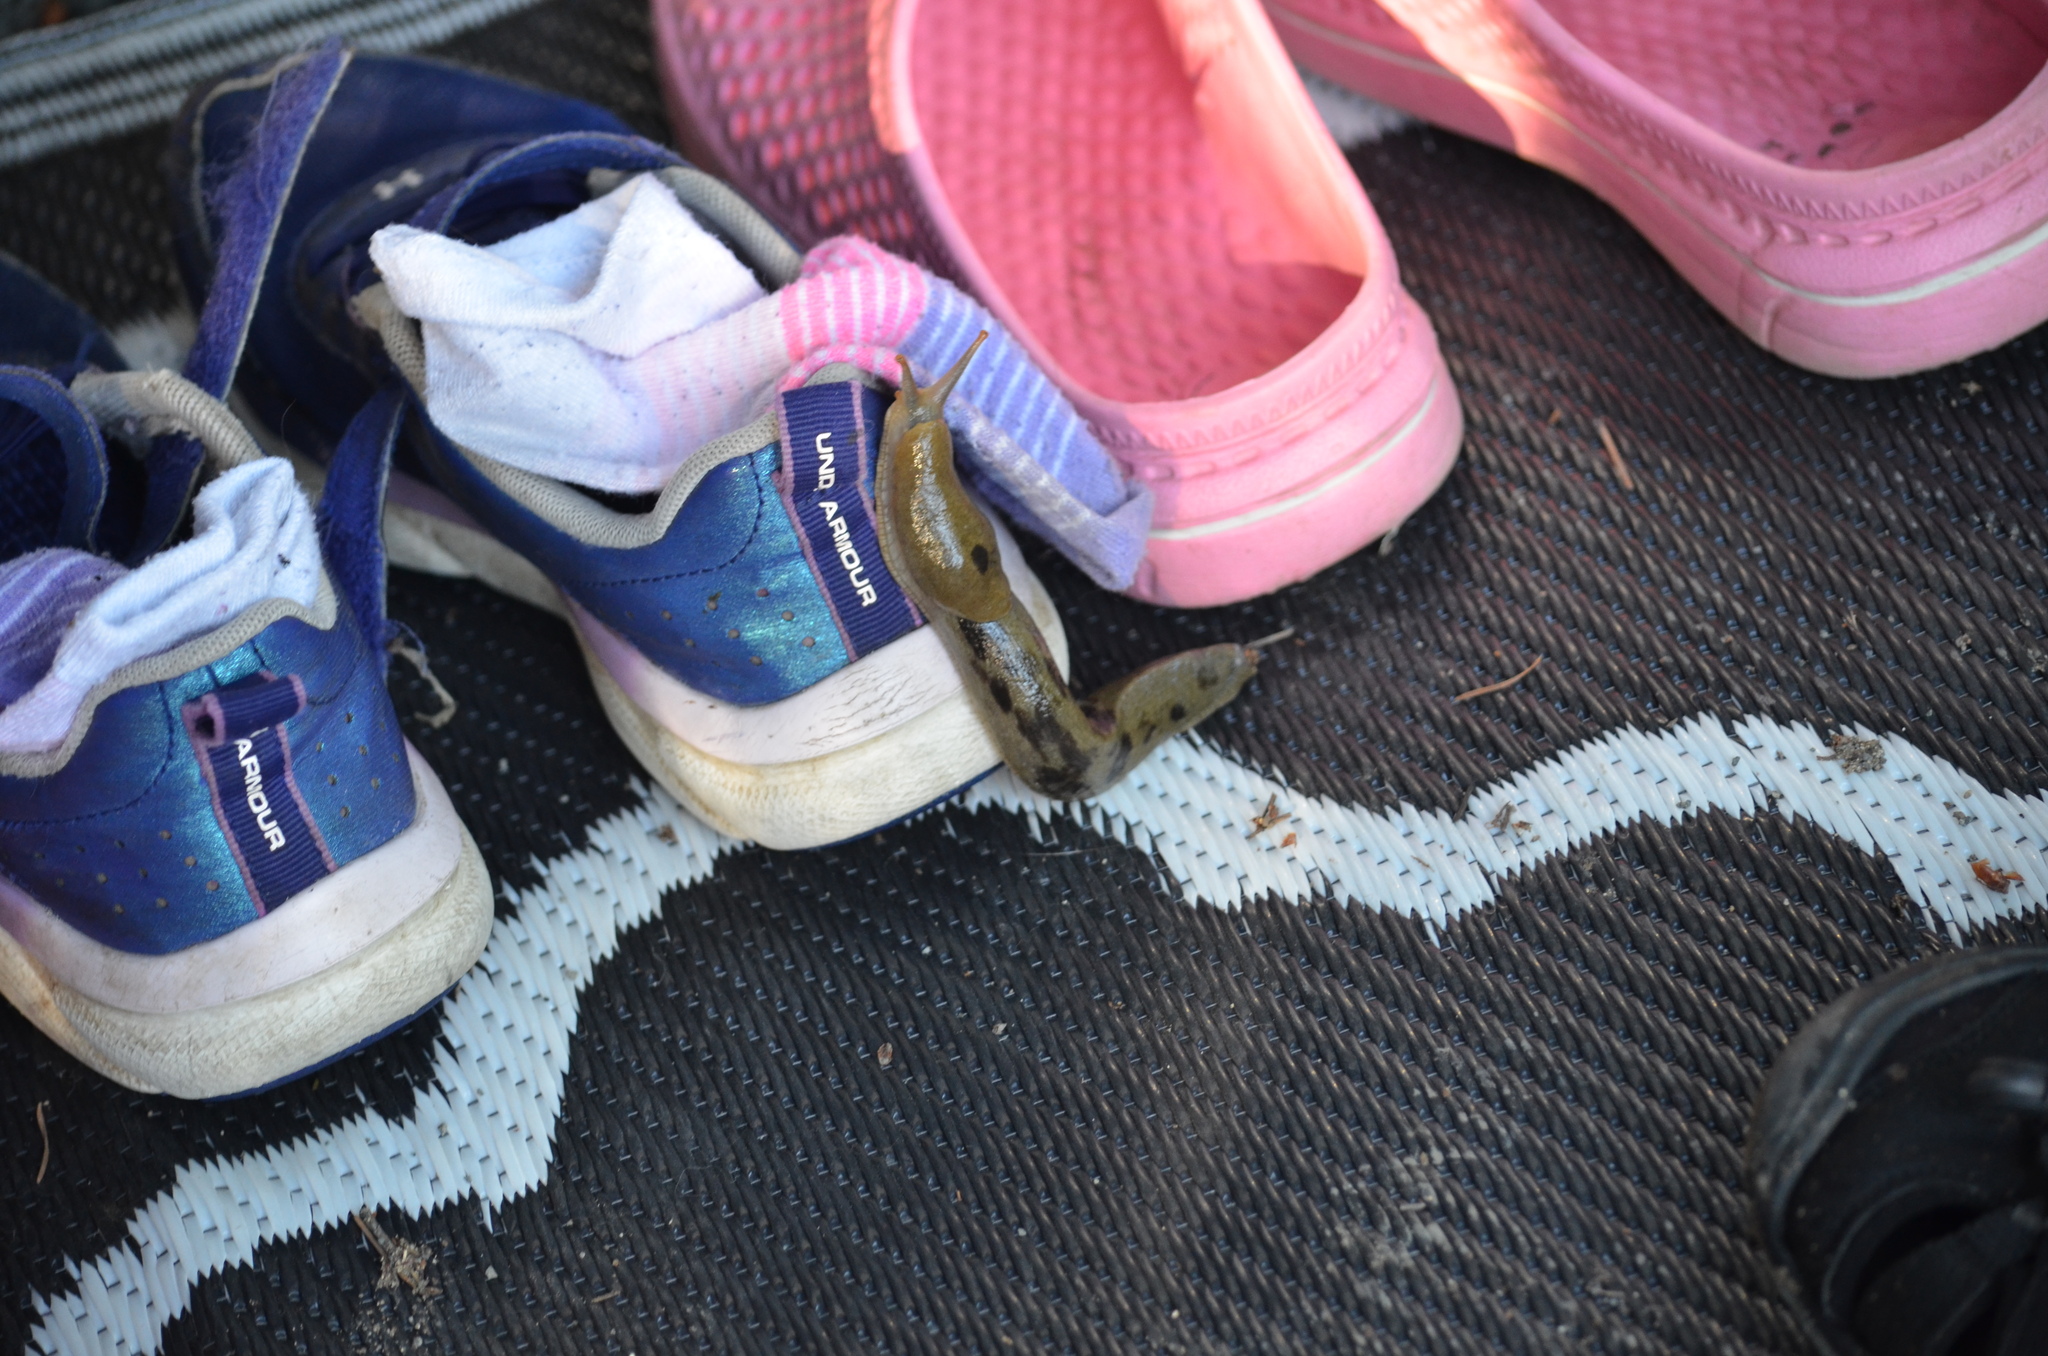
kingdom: Animalia
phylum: Mollusca
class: Gastropoda
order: Stylommatophora
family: Ariolimacidae
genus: Ariolimax
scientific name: Ariolimax columbianus
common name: Pacific banana slug
